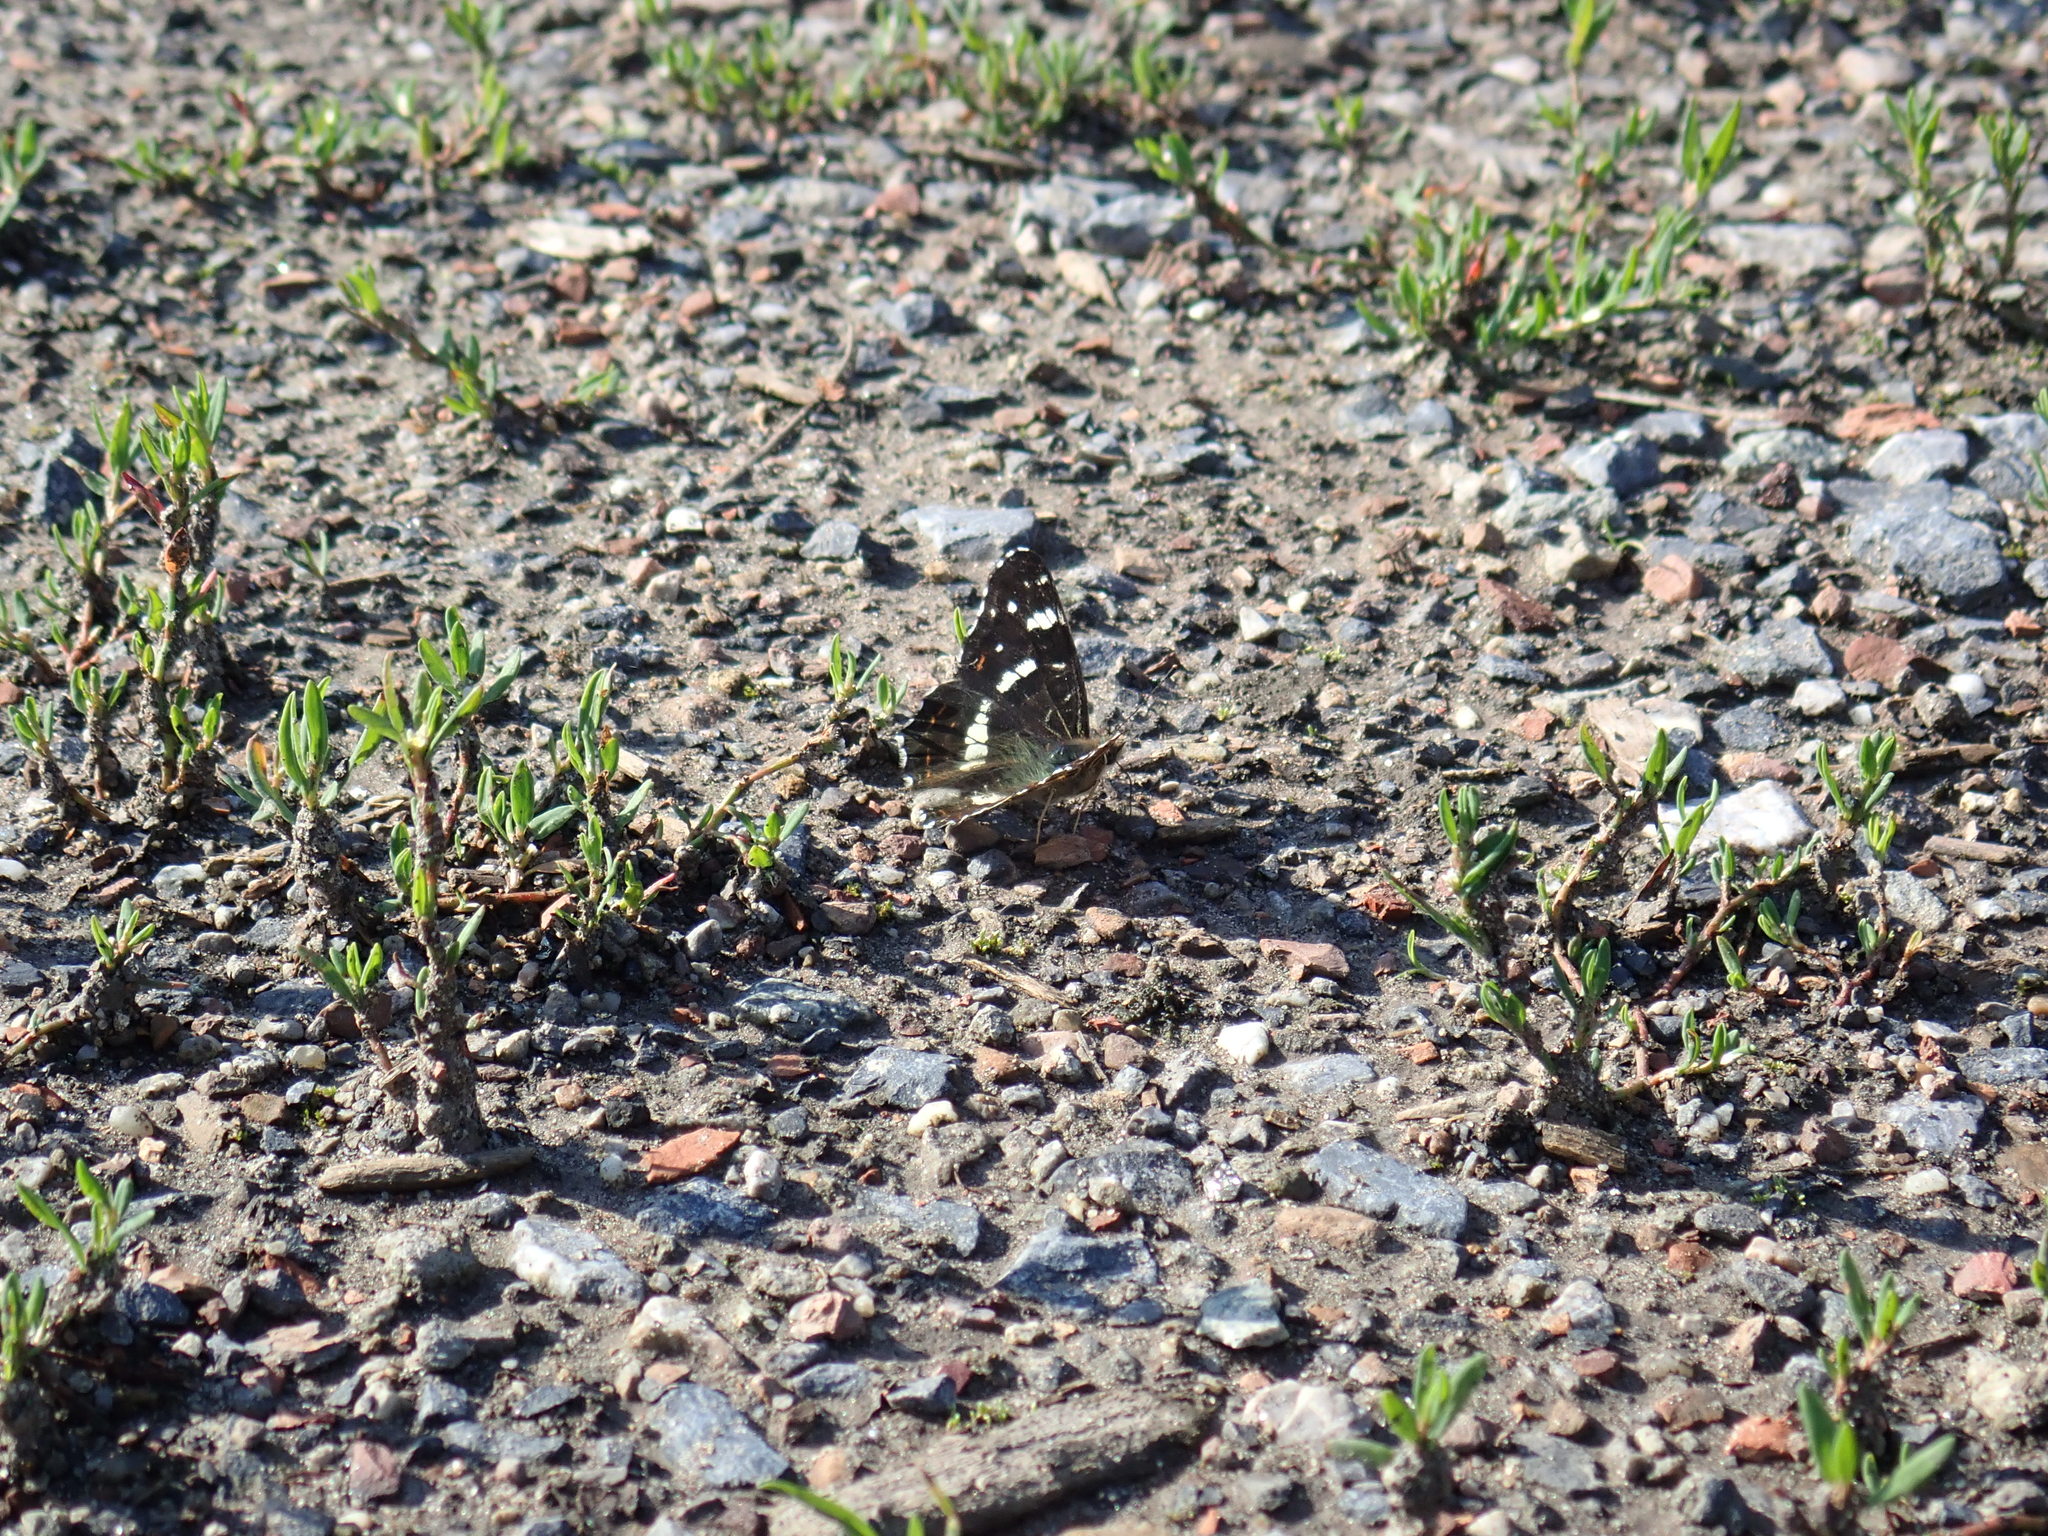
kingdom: Animalia
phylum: Arthropoda
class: Insecta
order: Lepidoptera
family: Nymphalidae
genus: Araschnia
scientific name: Araschnia levana
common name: Map butterfly
